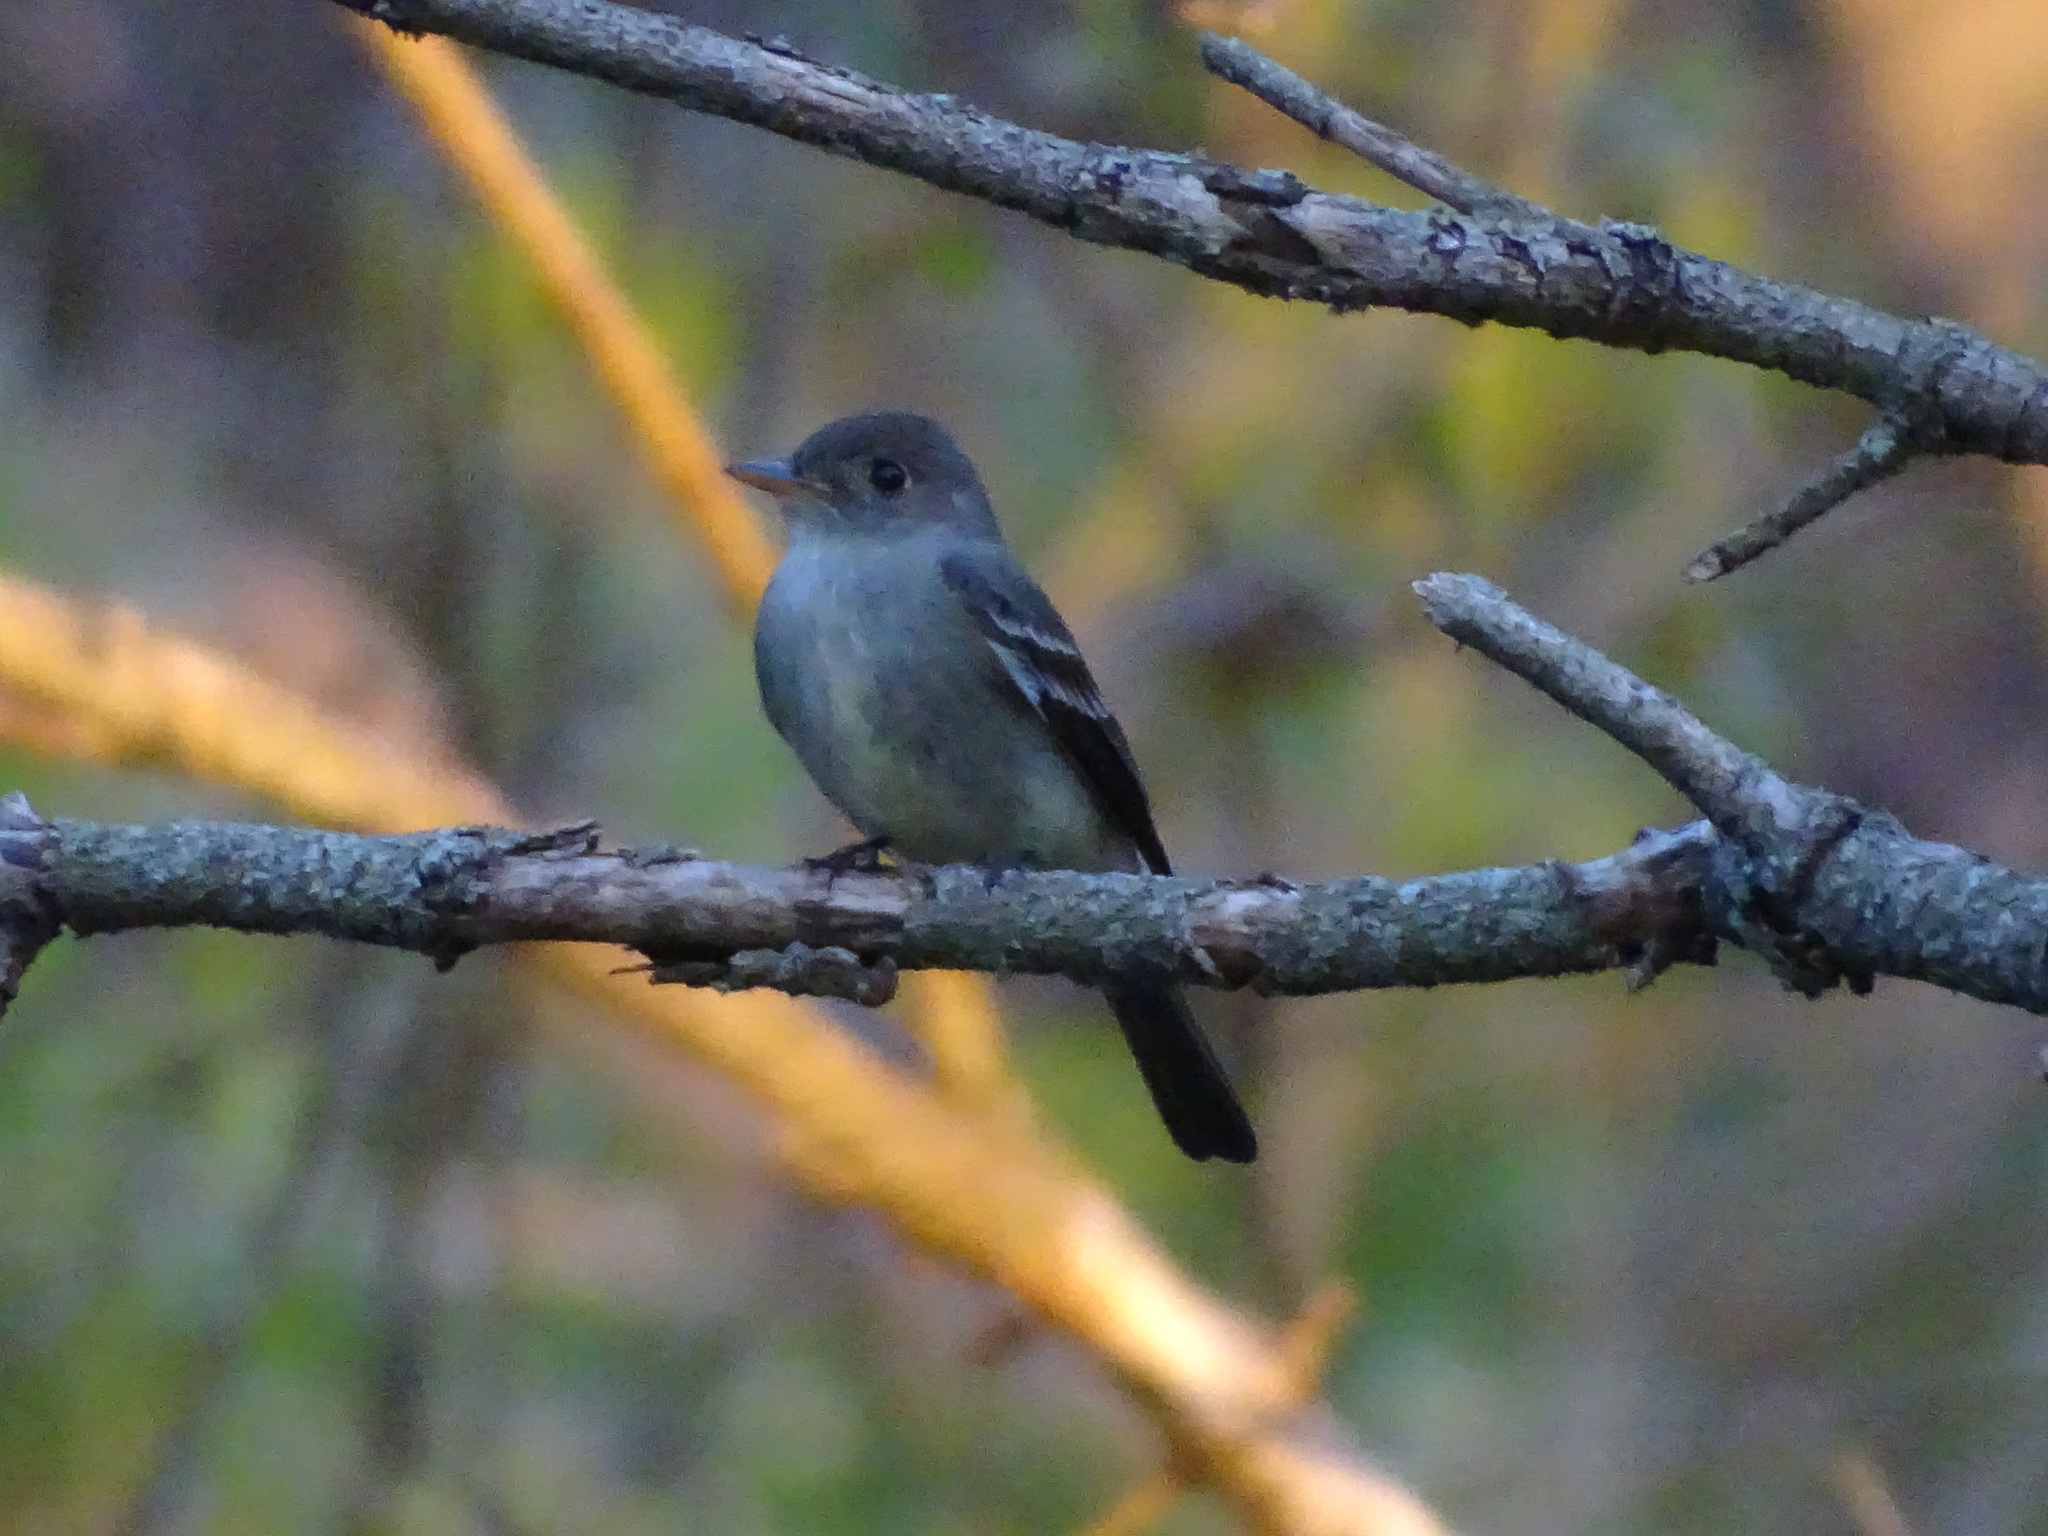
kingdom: Animalia
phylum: Chordata
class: Aves
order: Passeriformes
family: Tyrannidae
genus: Contopus
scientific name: Contopus virens
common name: Eastern wood-pewee
